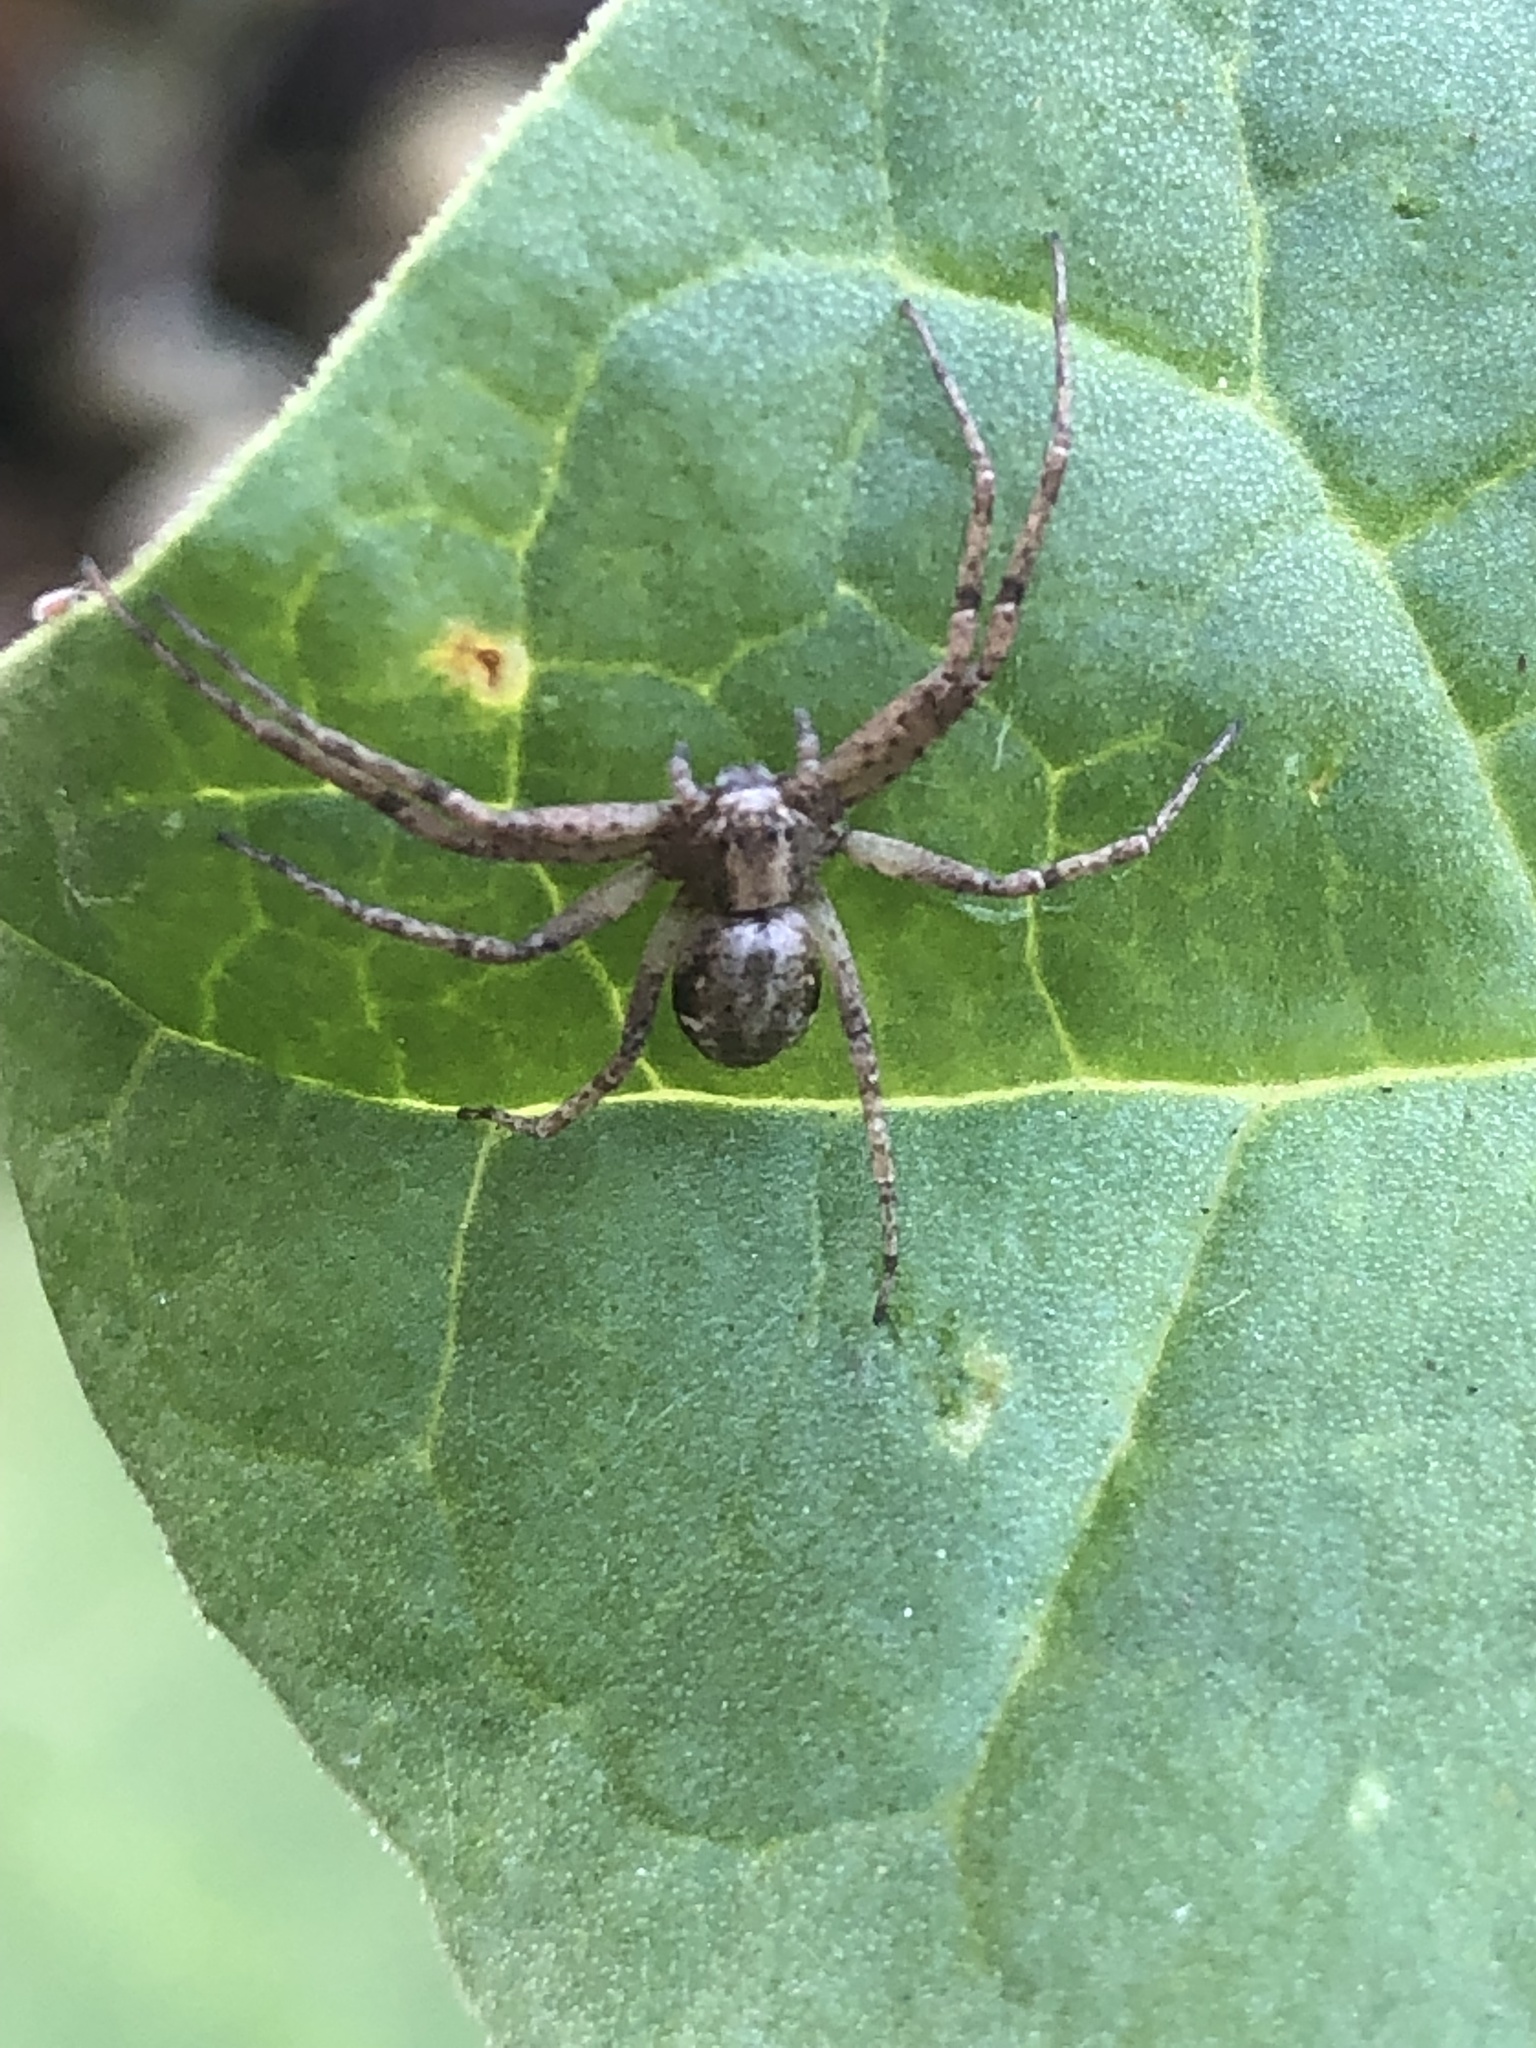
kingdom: Animalia
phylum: Arthropoda
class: Arachnida
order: Araneae
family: Philodromidae
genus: Philodromus
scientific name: Philodromus
